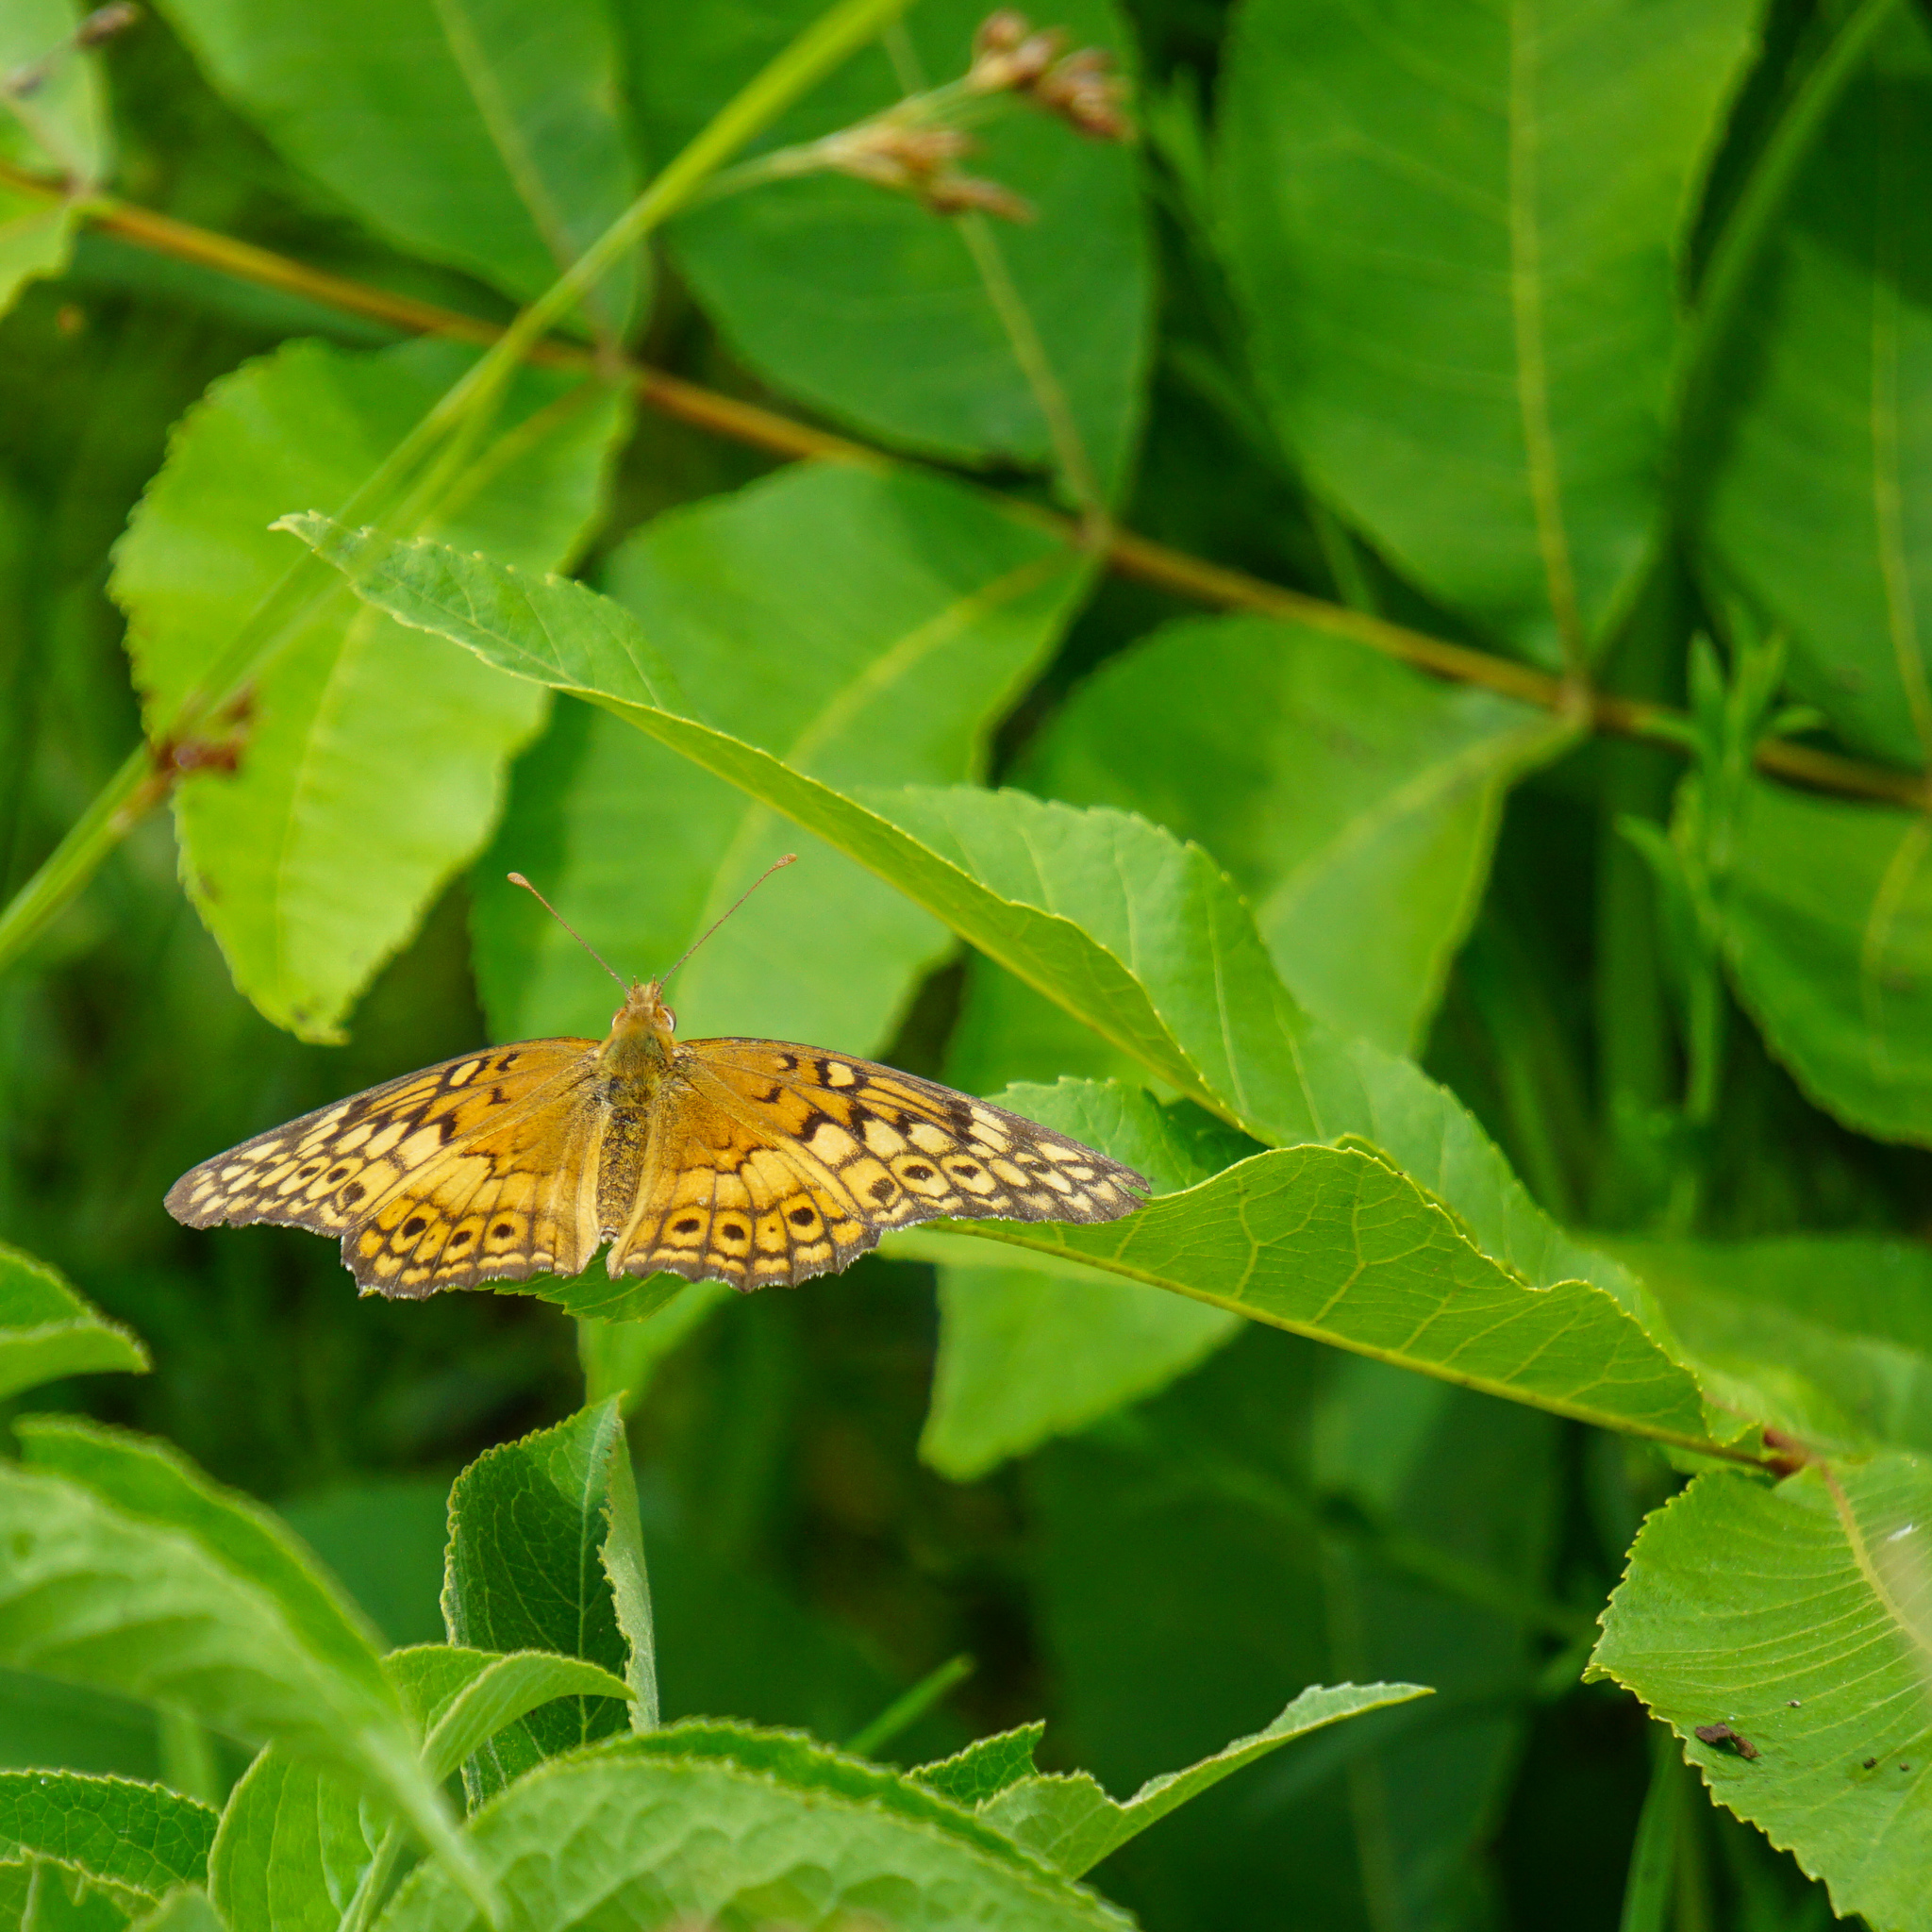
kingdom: Animalia
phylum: Arthropoda
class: Insecta
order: Lepidoptera
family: Nymphalidae
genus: Euptoieta
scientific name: Euptoieta claudia
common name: Variegated fritillary
